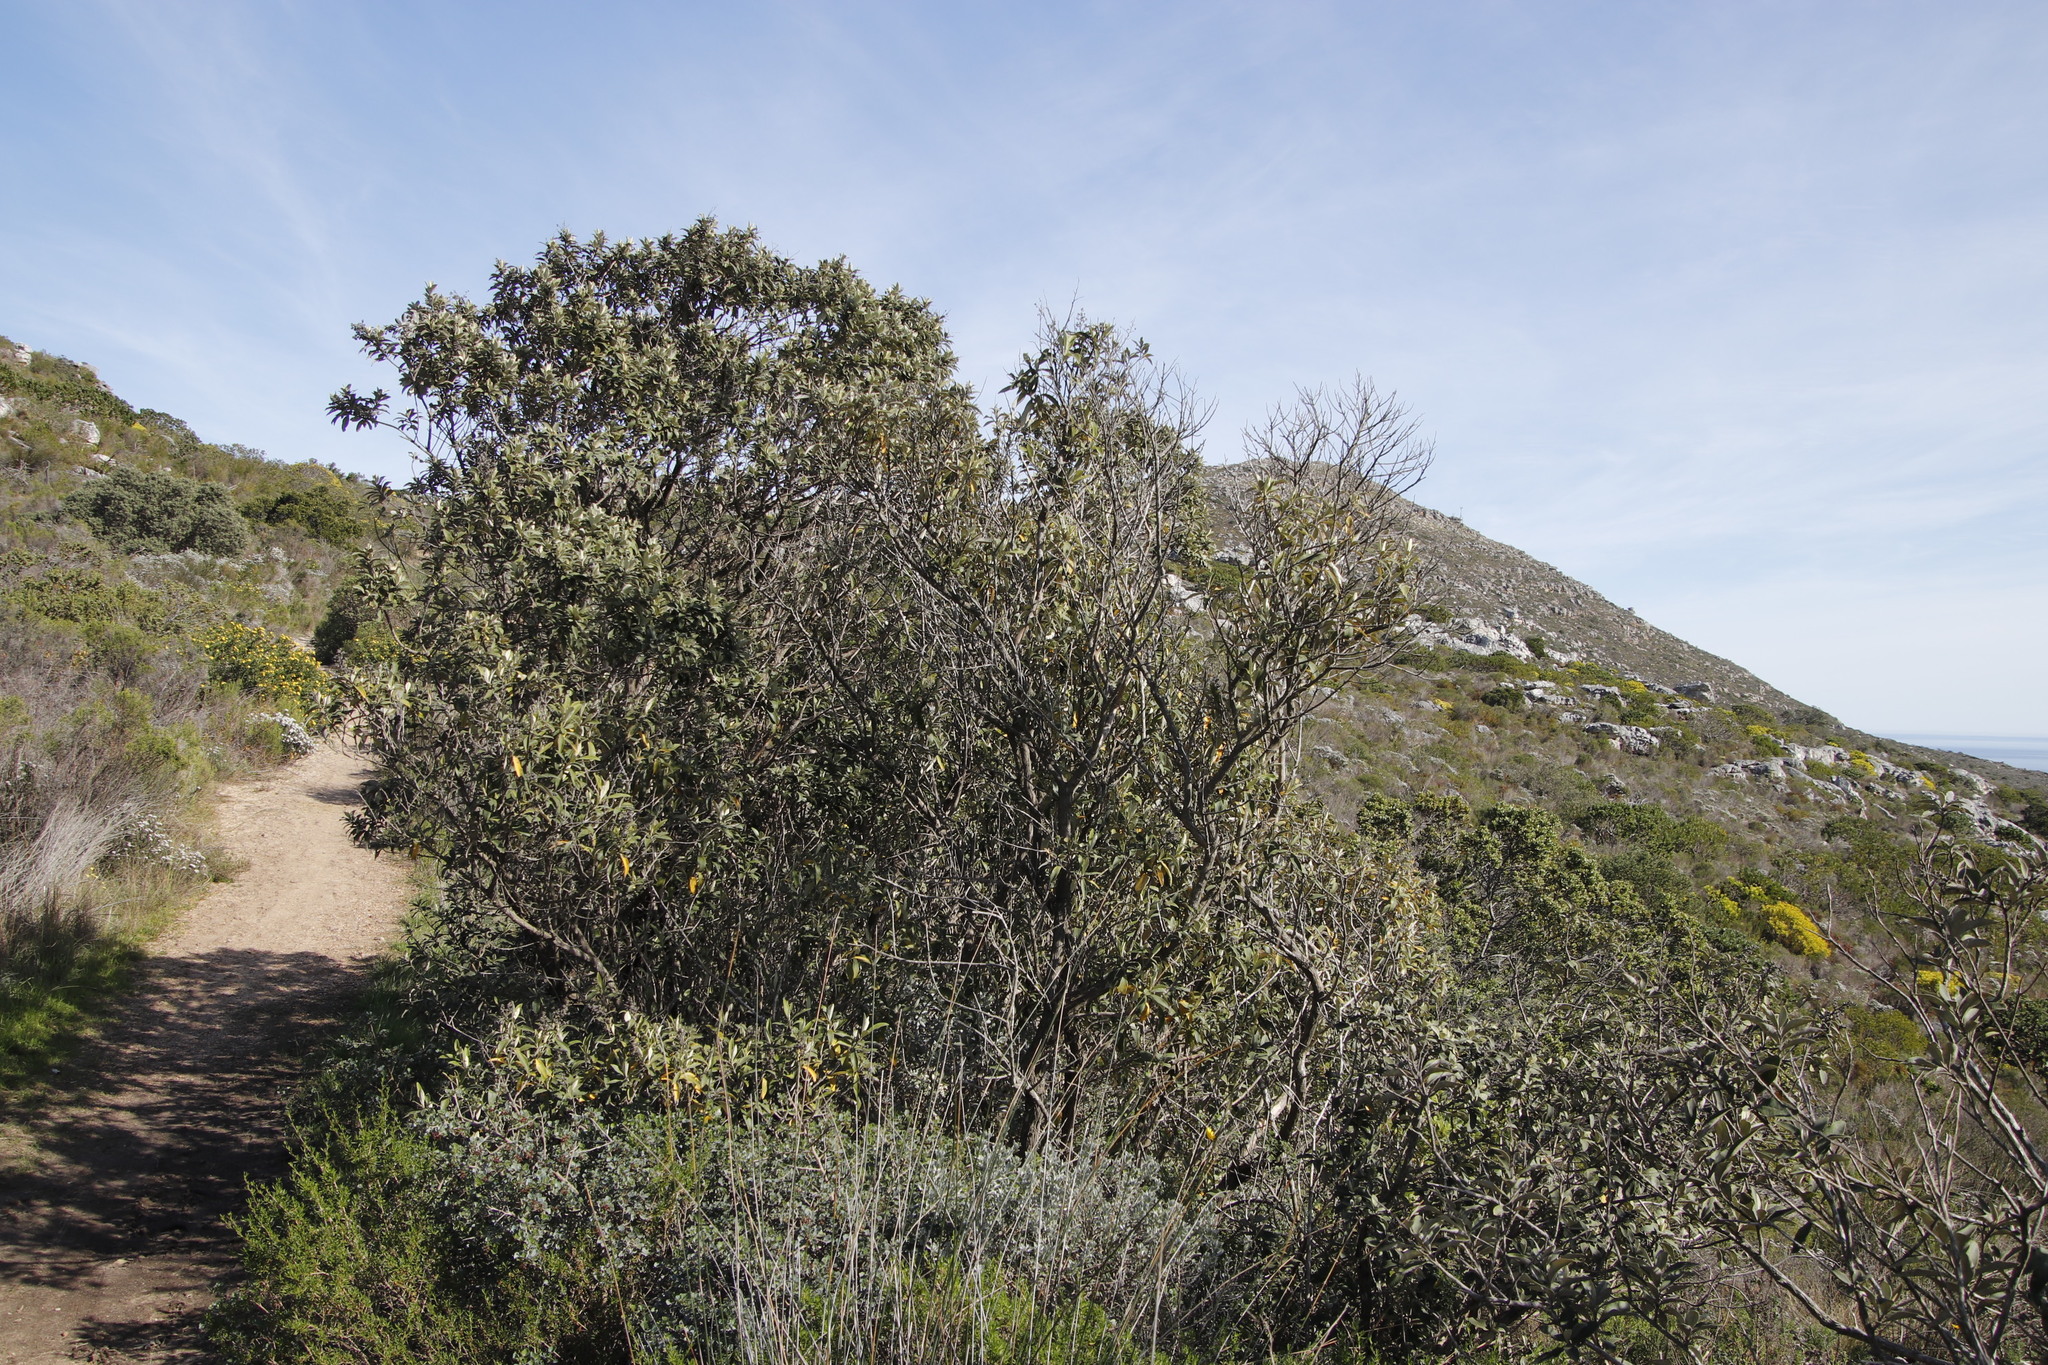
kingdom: Plantae
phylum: Tracheophyta
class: Magnoliopsida
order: Asterales
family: Asteraceae
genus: Tarchonanthus
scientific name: Tarchonanthus littoralis
